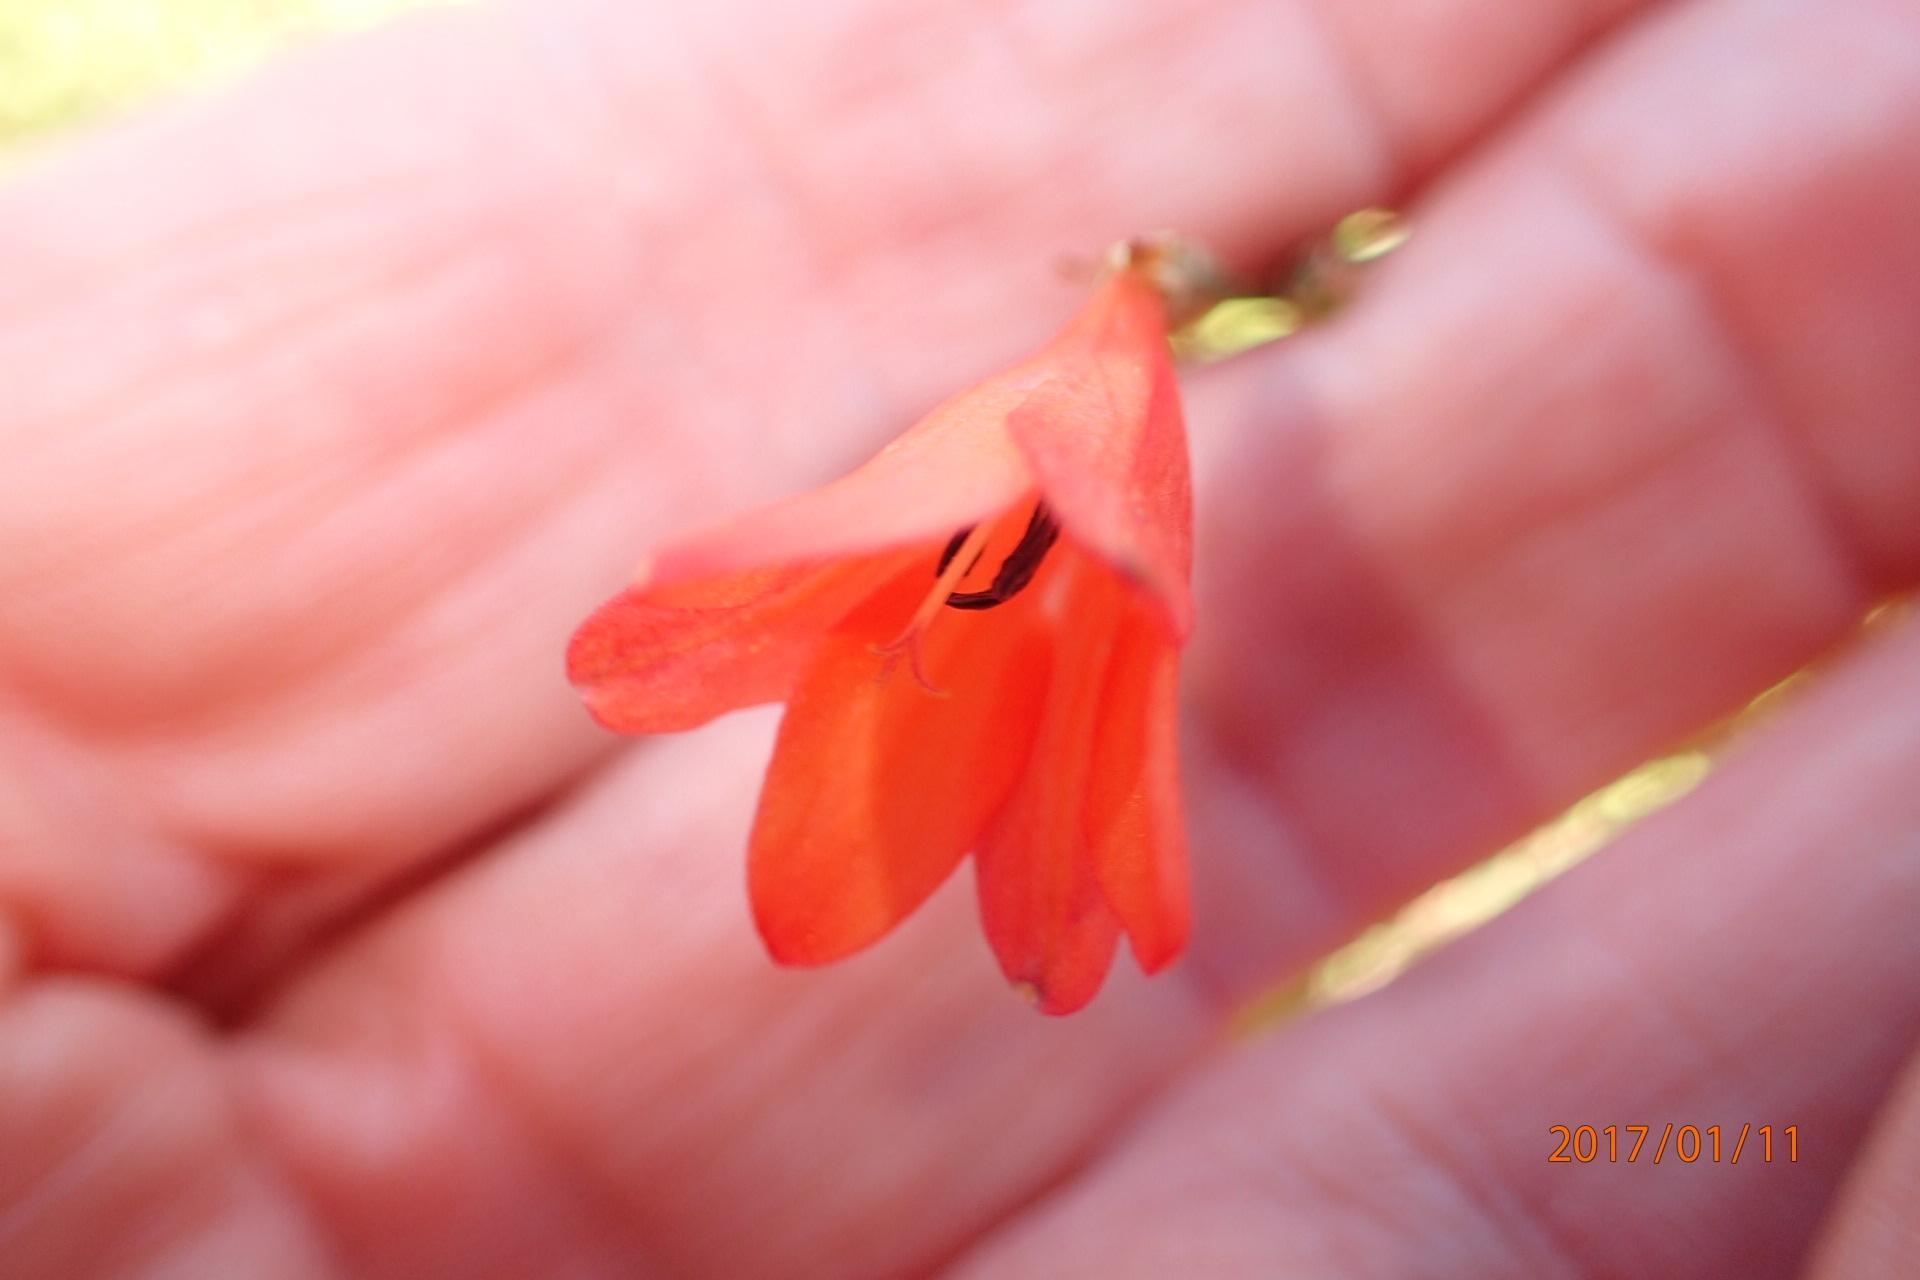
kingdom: Plantae
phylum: Tracheophyta
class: Liliopsida
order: Asparagales
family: Iridaceae
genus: Tritonia
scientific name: Tritonia disticha
